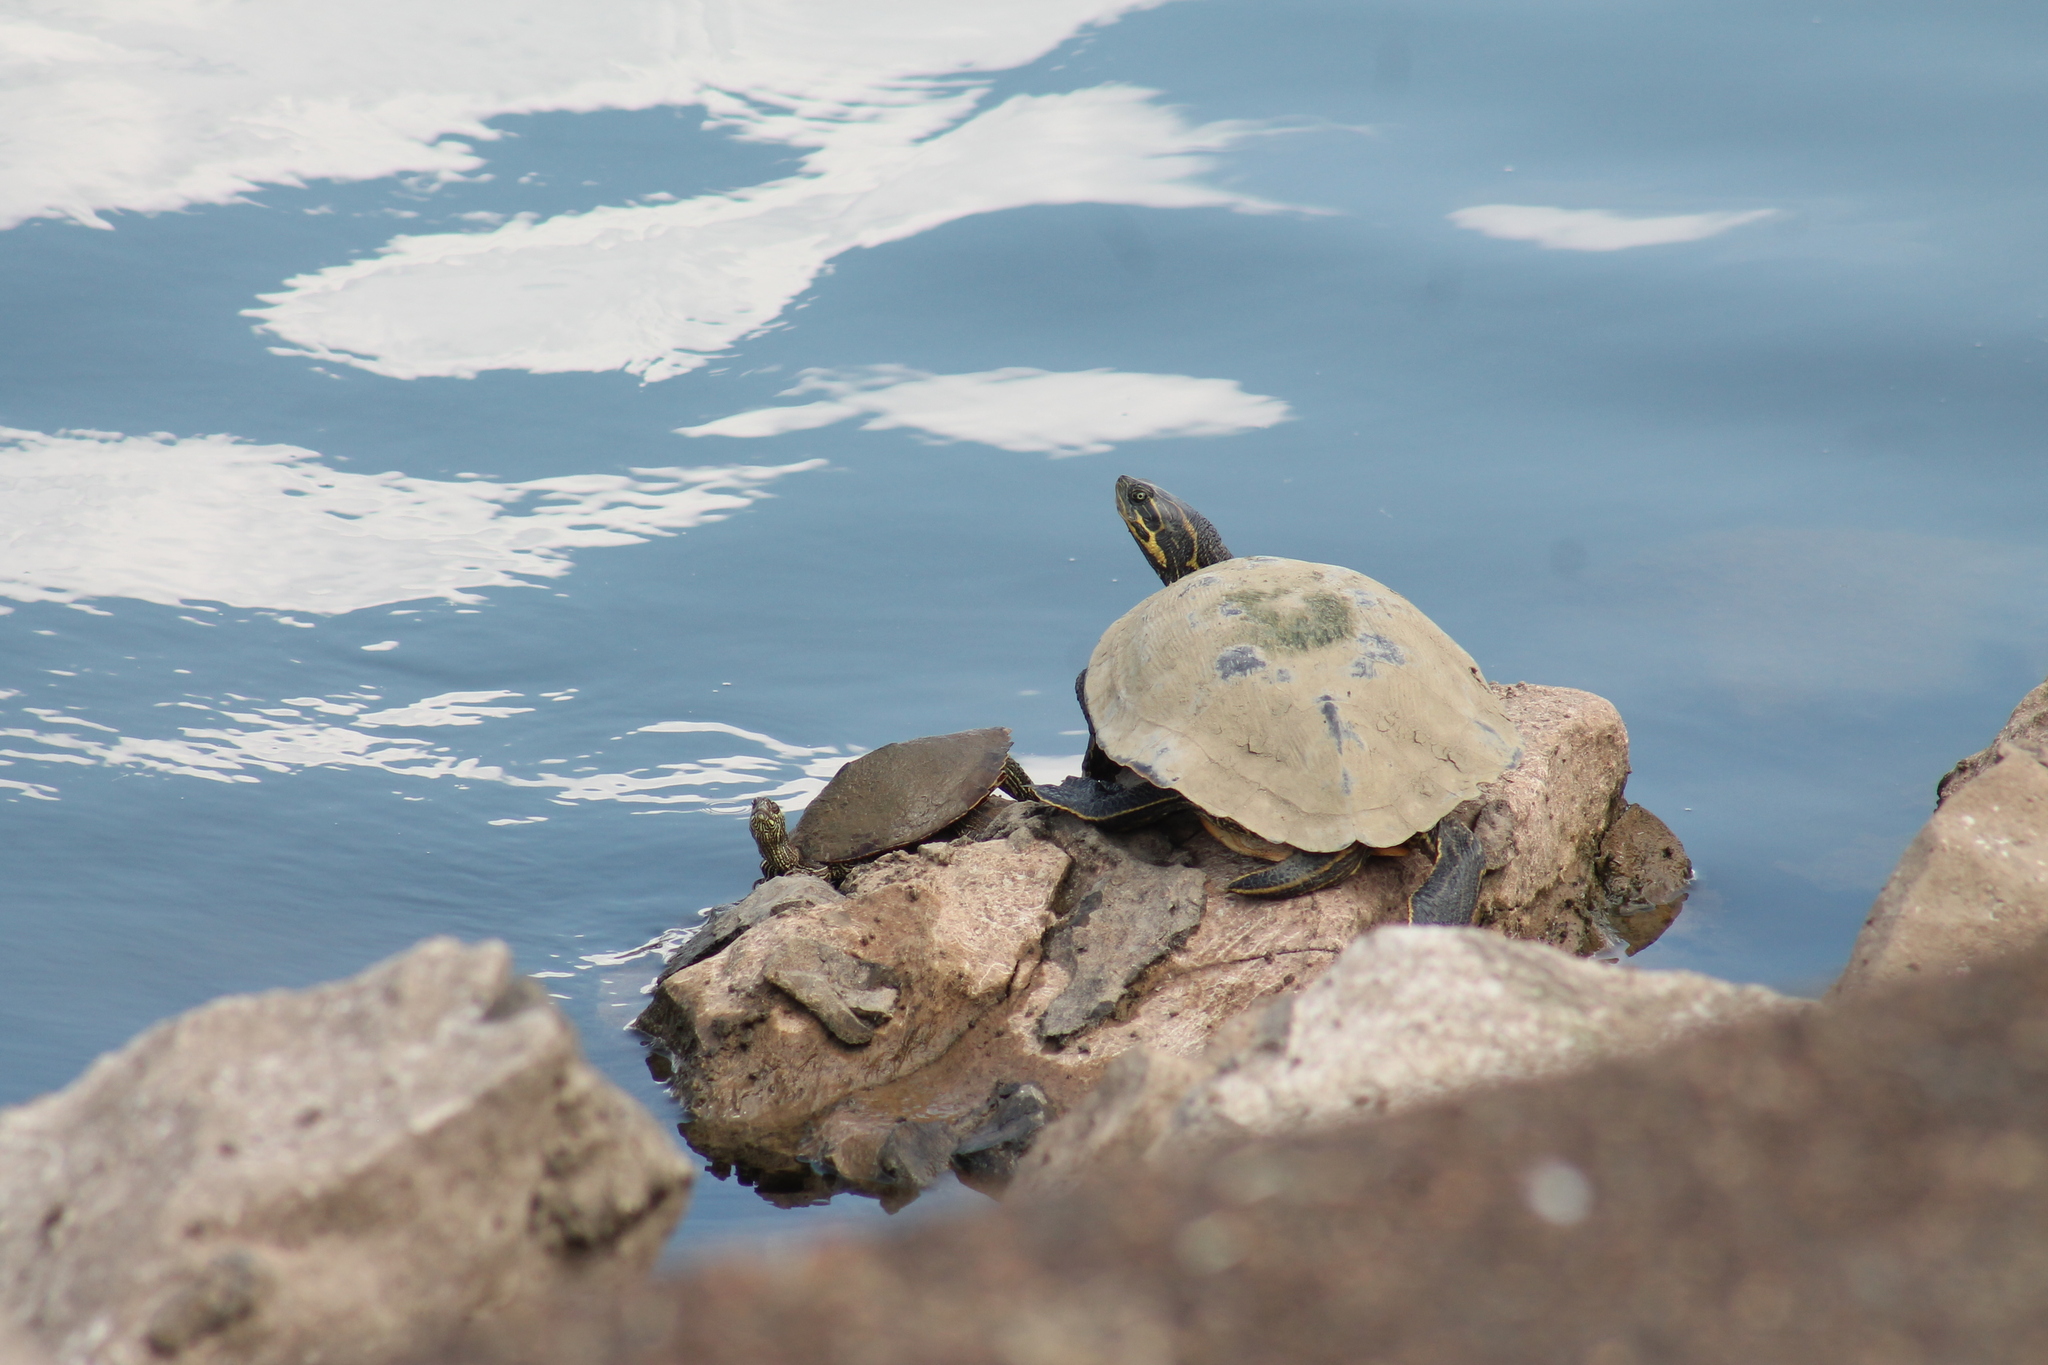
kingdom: Animalia
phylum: Chordata
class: Testudines
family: Emydidae
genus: Graptemys
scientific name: Graptemys ouachitensis
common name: Ouachita map turtle
